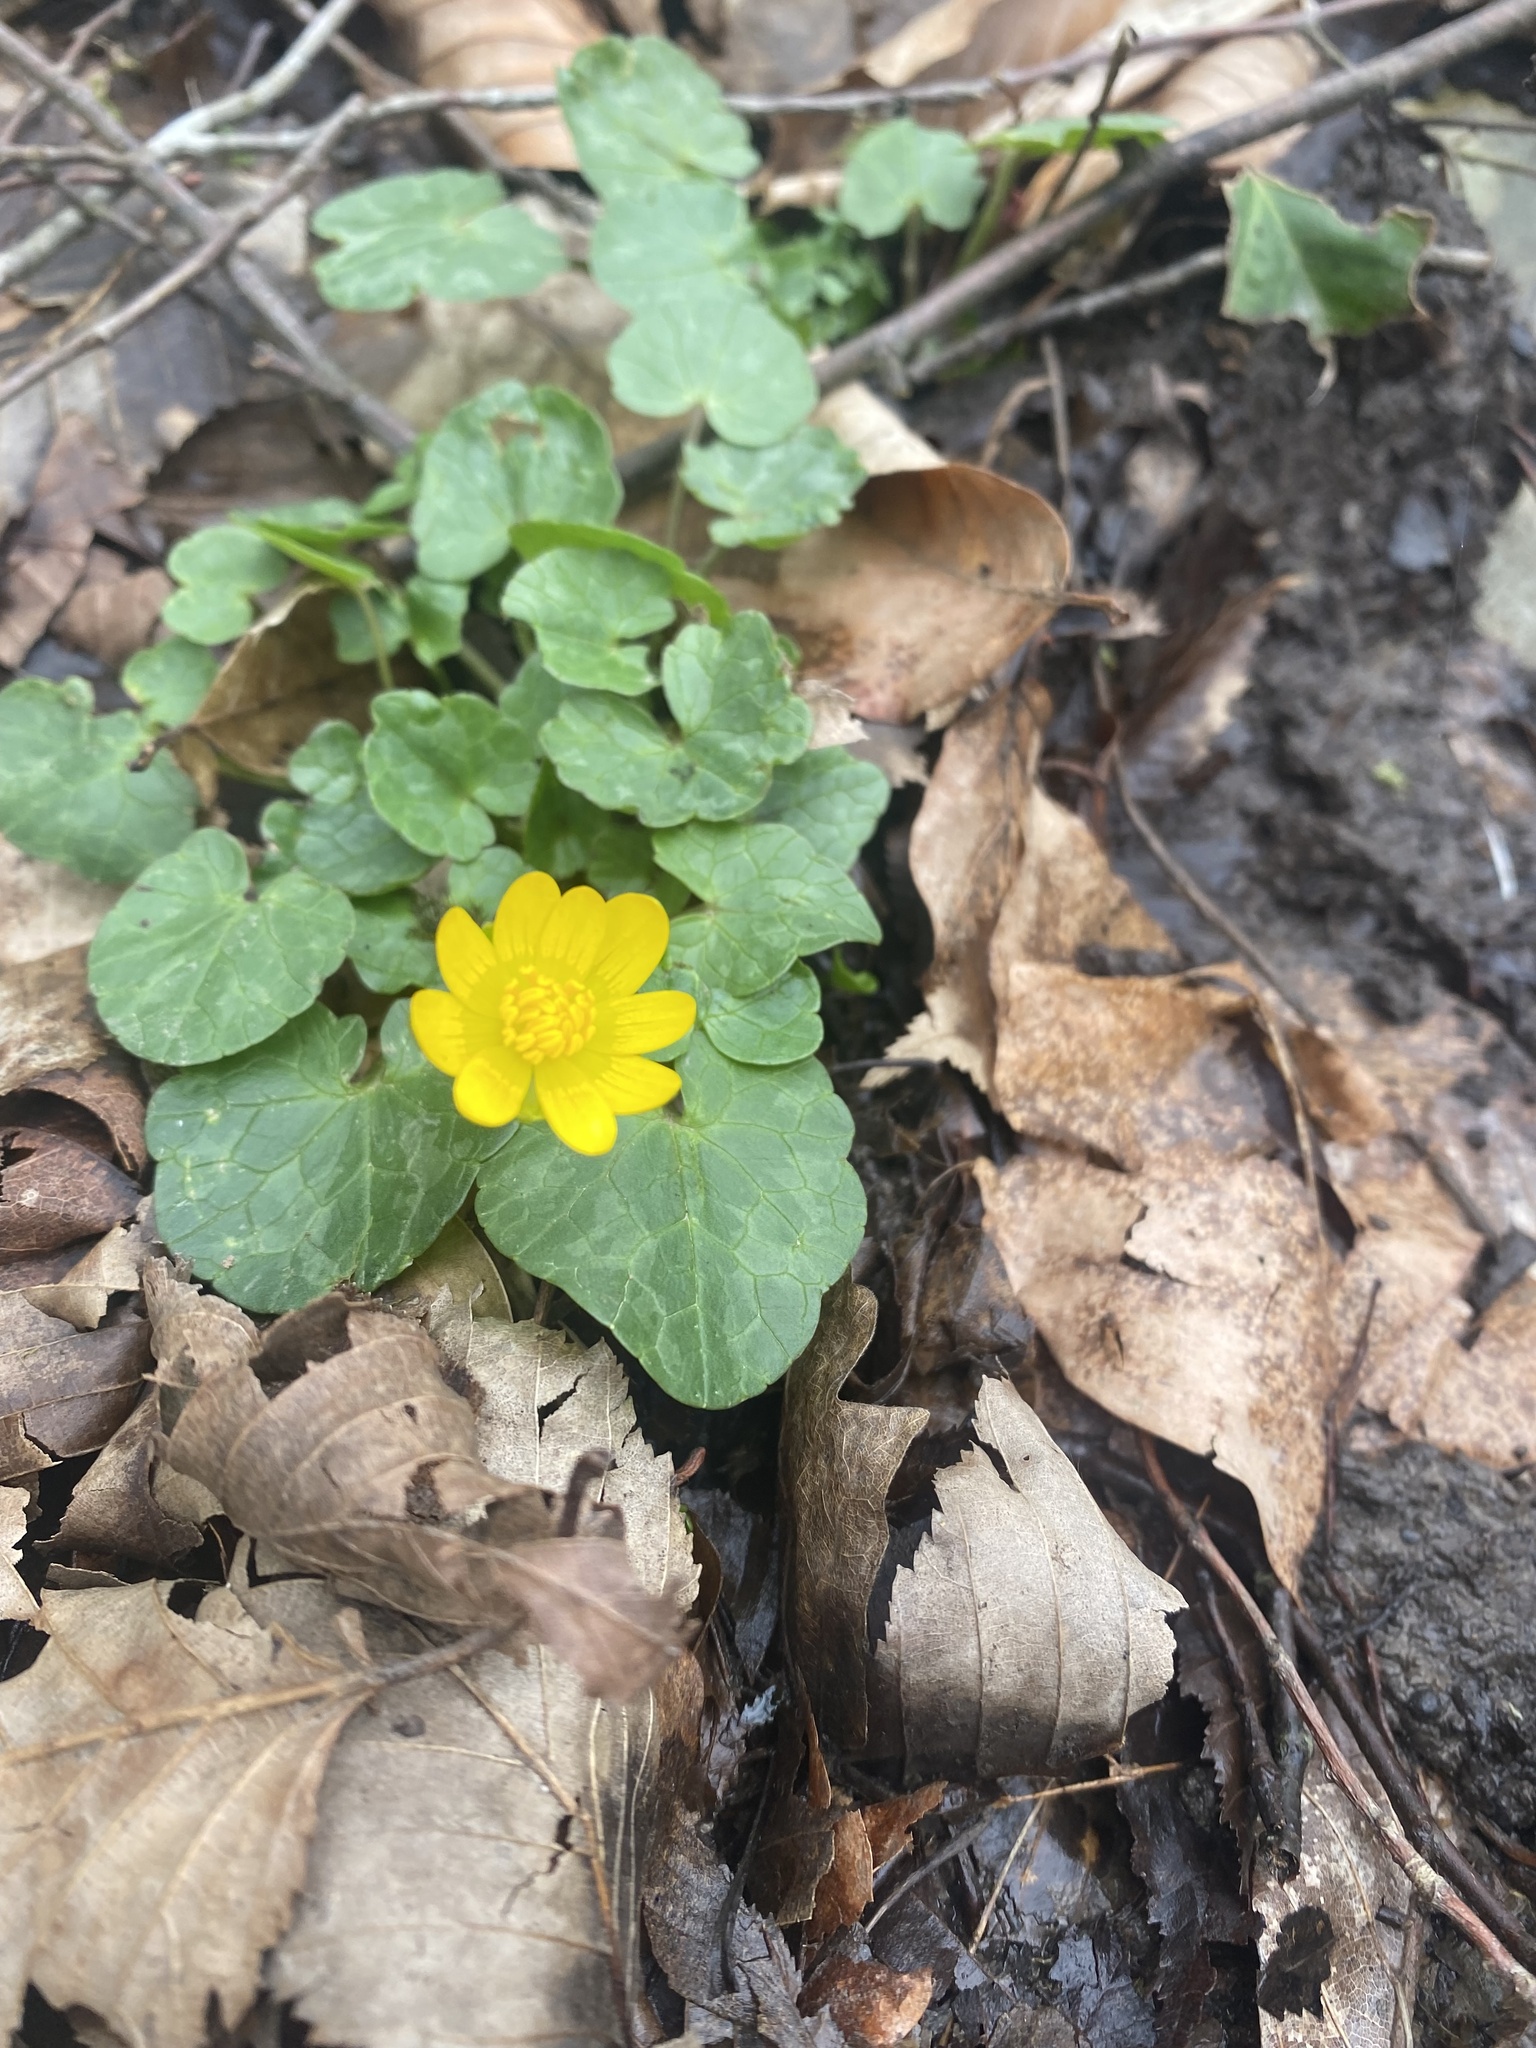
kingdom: Plantae
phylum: Tracheophyta
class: Magnoliopsida
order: Ranunculales
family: Ranunculaceae
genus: Ficaria
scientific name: Ficaria verna
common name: Lesser celandine
